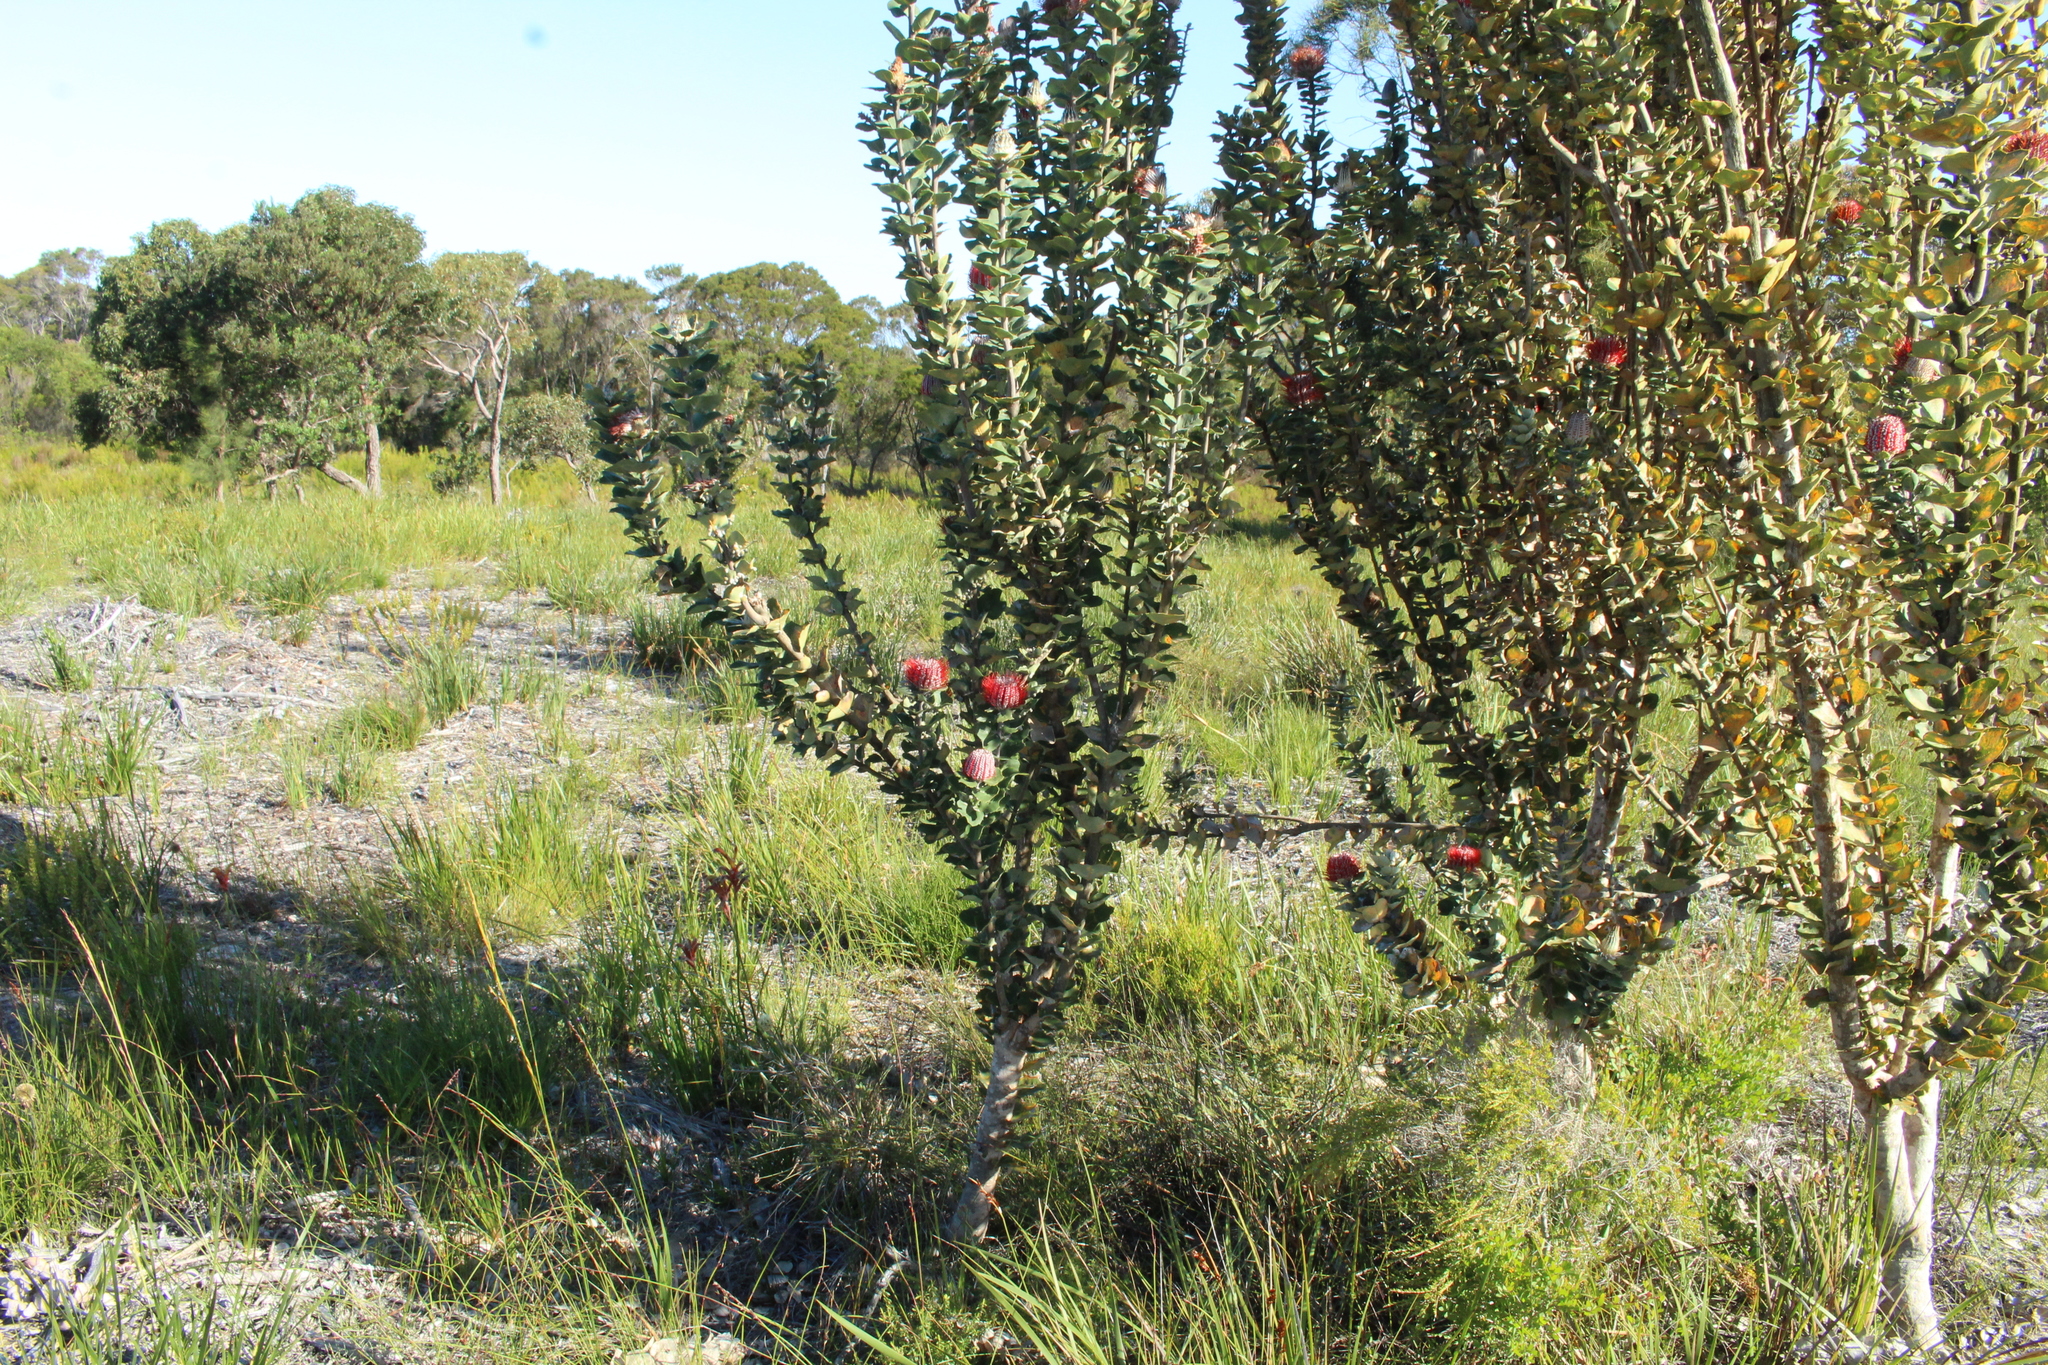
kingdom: Plantae
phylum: Tracheophyta
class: Magnoliopsida
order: Proteales
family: Proteaceae
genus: Banksia
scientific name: Banksia coccinea
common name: Scarlet banksia
